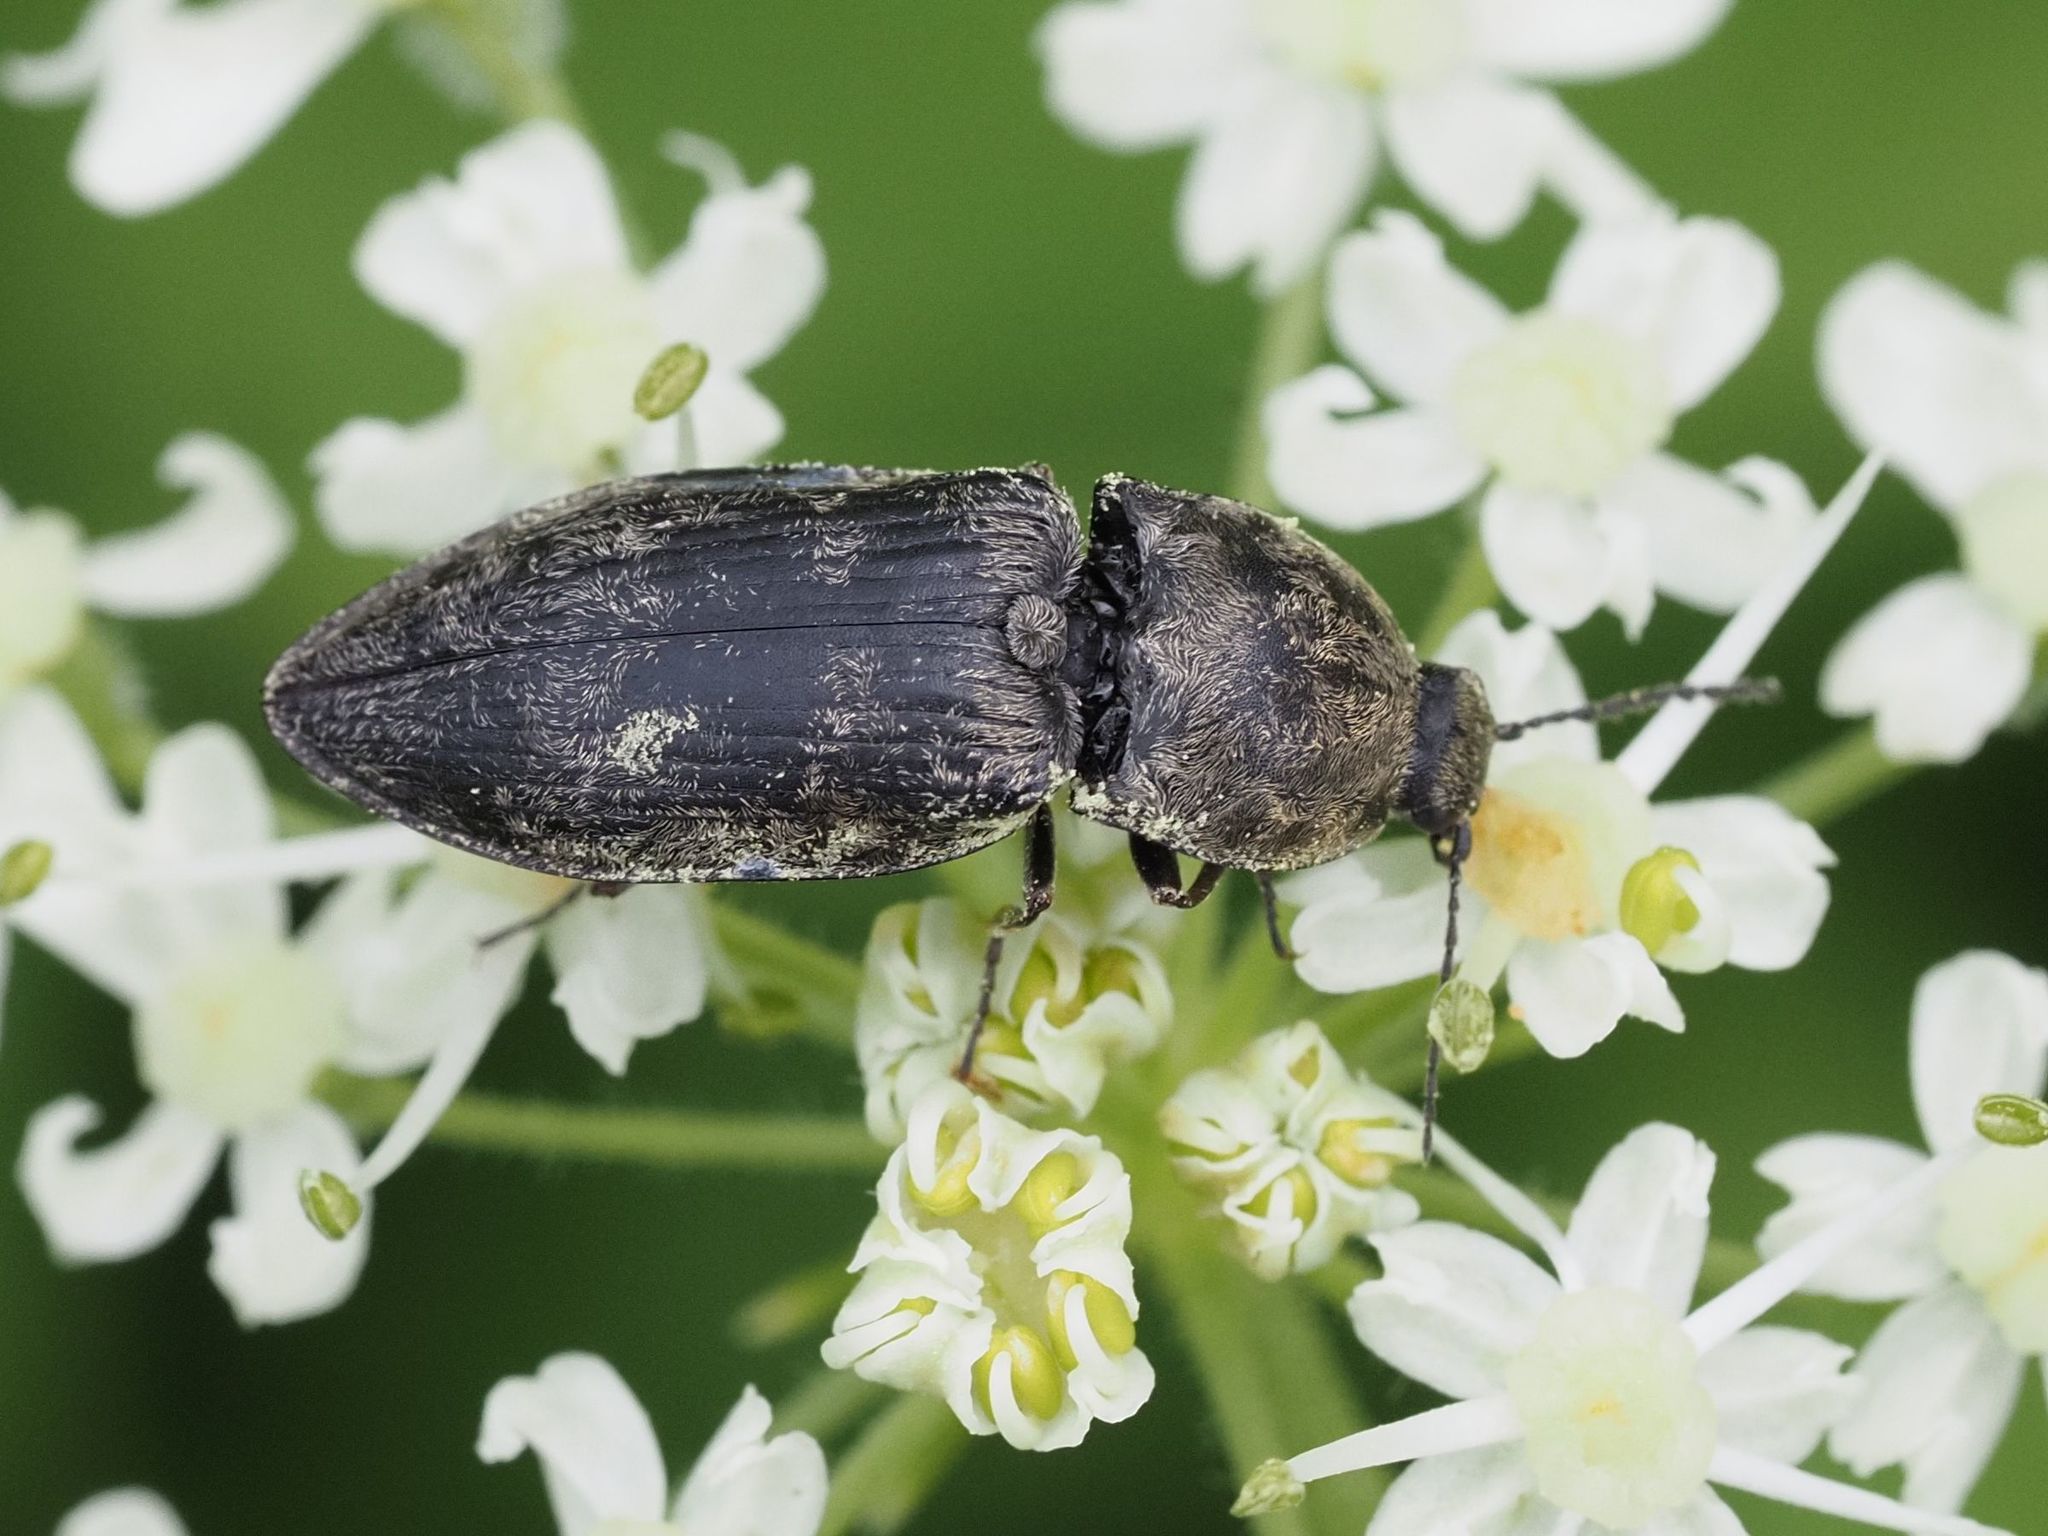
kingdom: Animalia
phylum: Arthropoda
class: Insecta
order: Coleoptera
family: Elateridae
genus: Prosternon
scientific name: Prosternon tessellatum
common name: Chequered click beetle
